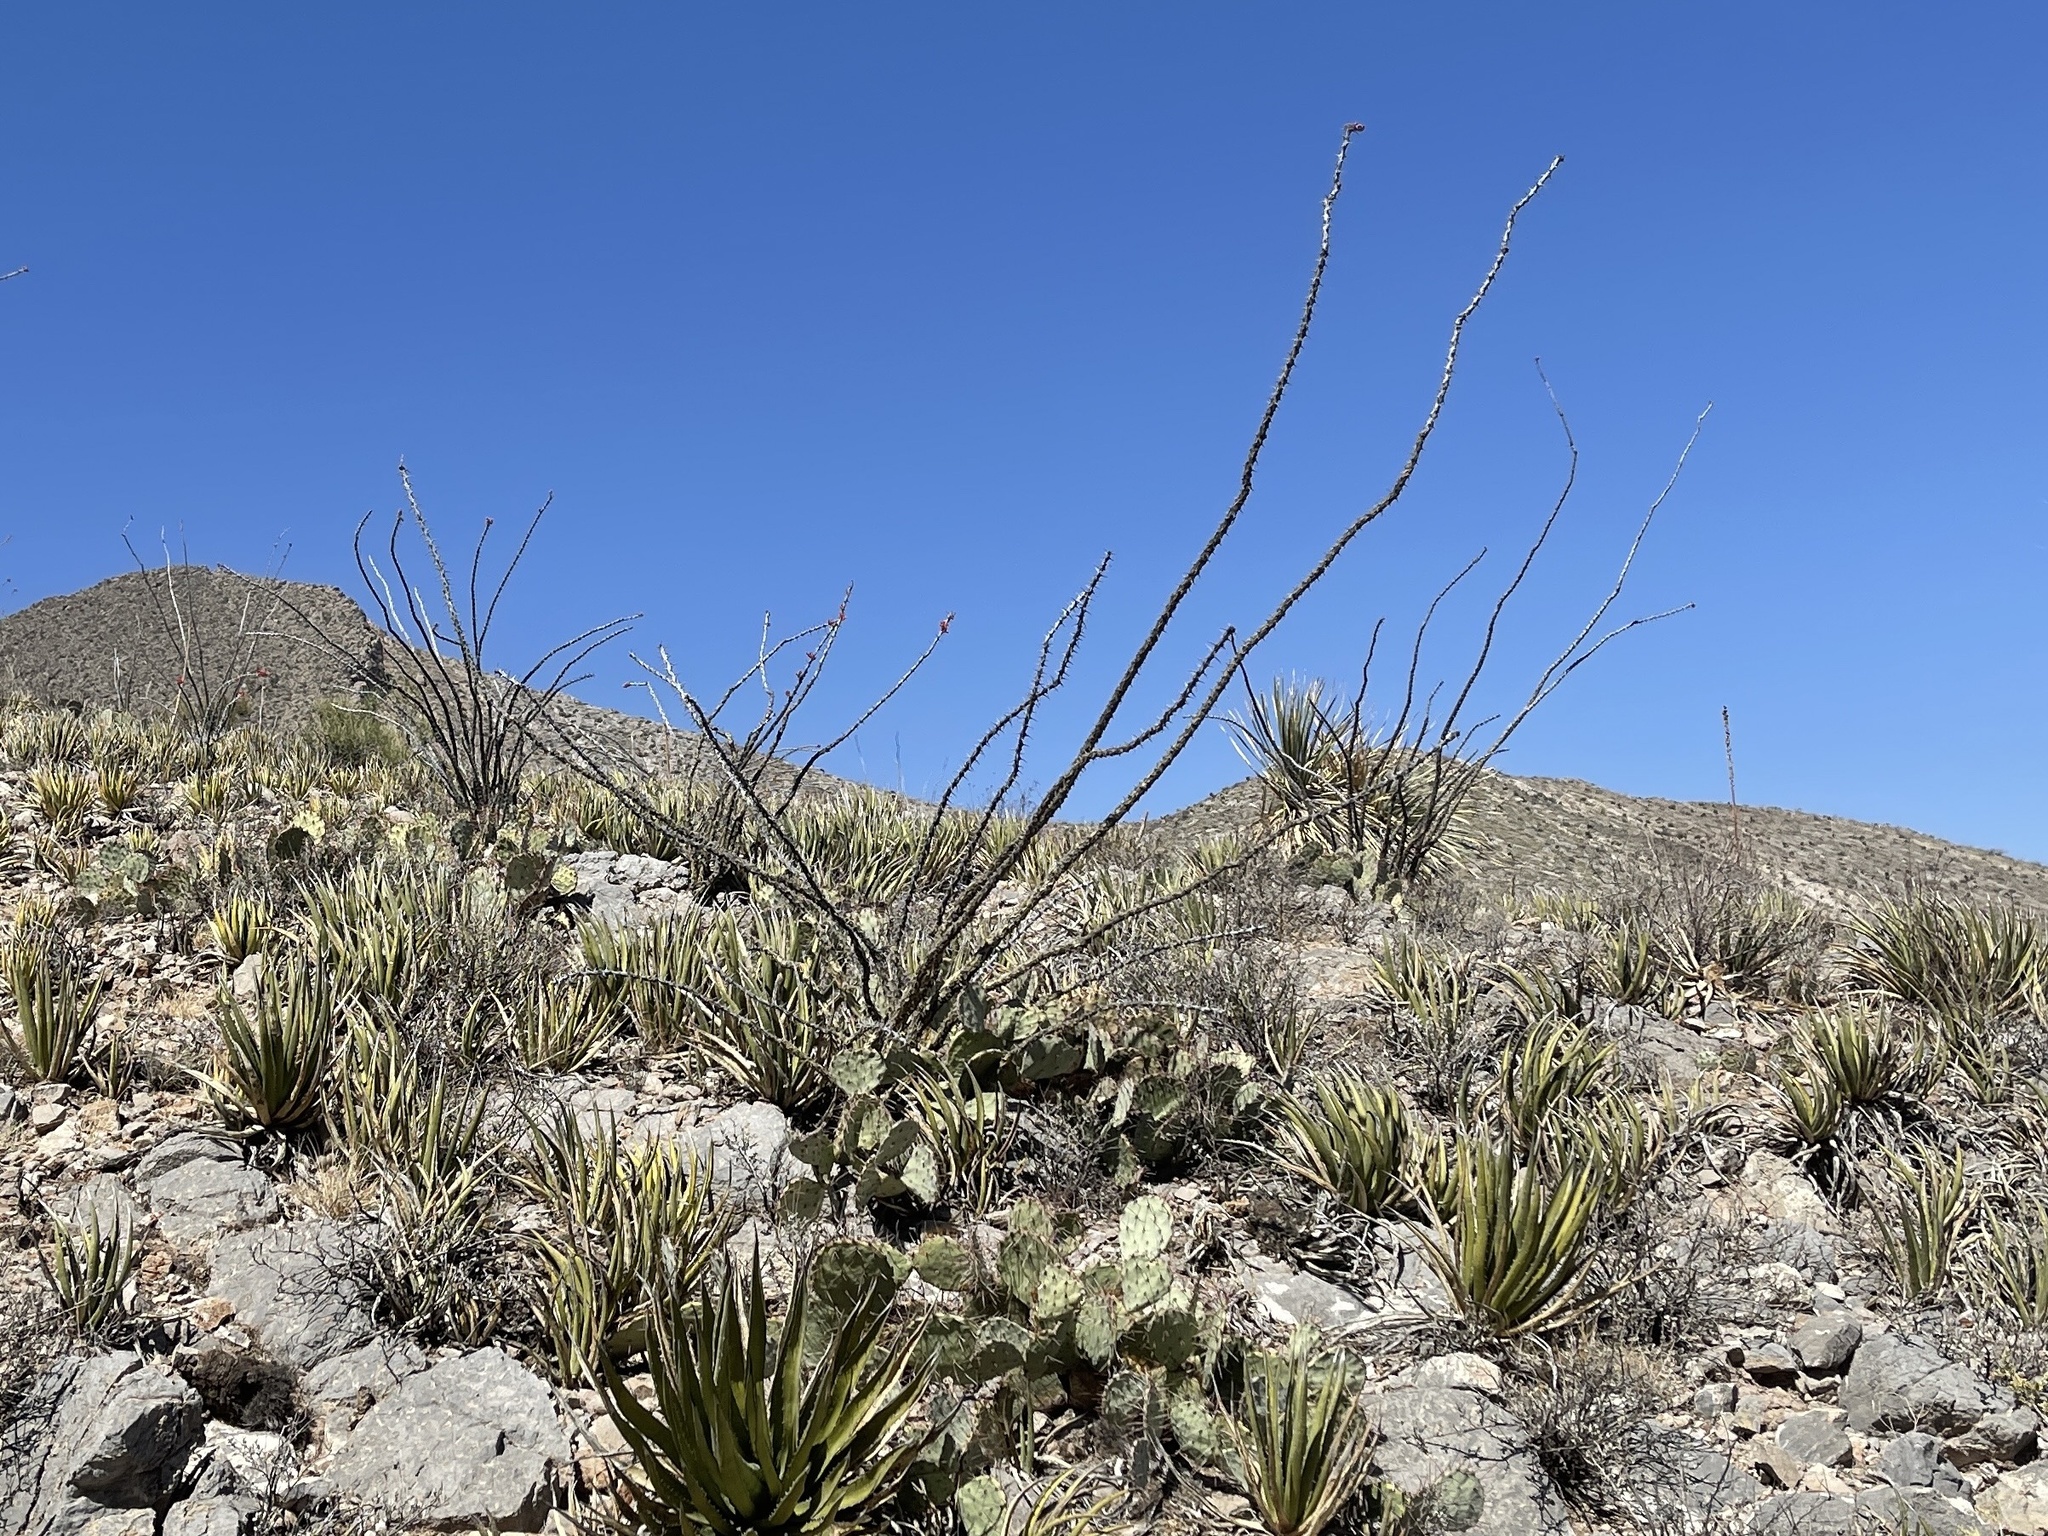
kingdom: Plantae
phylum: Tracheophyta
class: Magnoliopsida
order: Ericales
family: Fouquieriaceae
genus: Fouquieria
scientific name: Fouquieria splendens
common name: Vine-cactus
